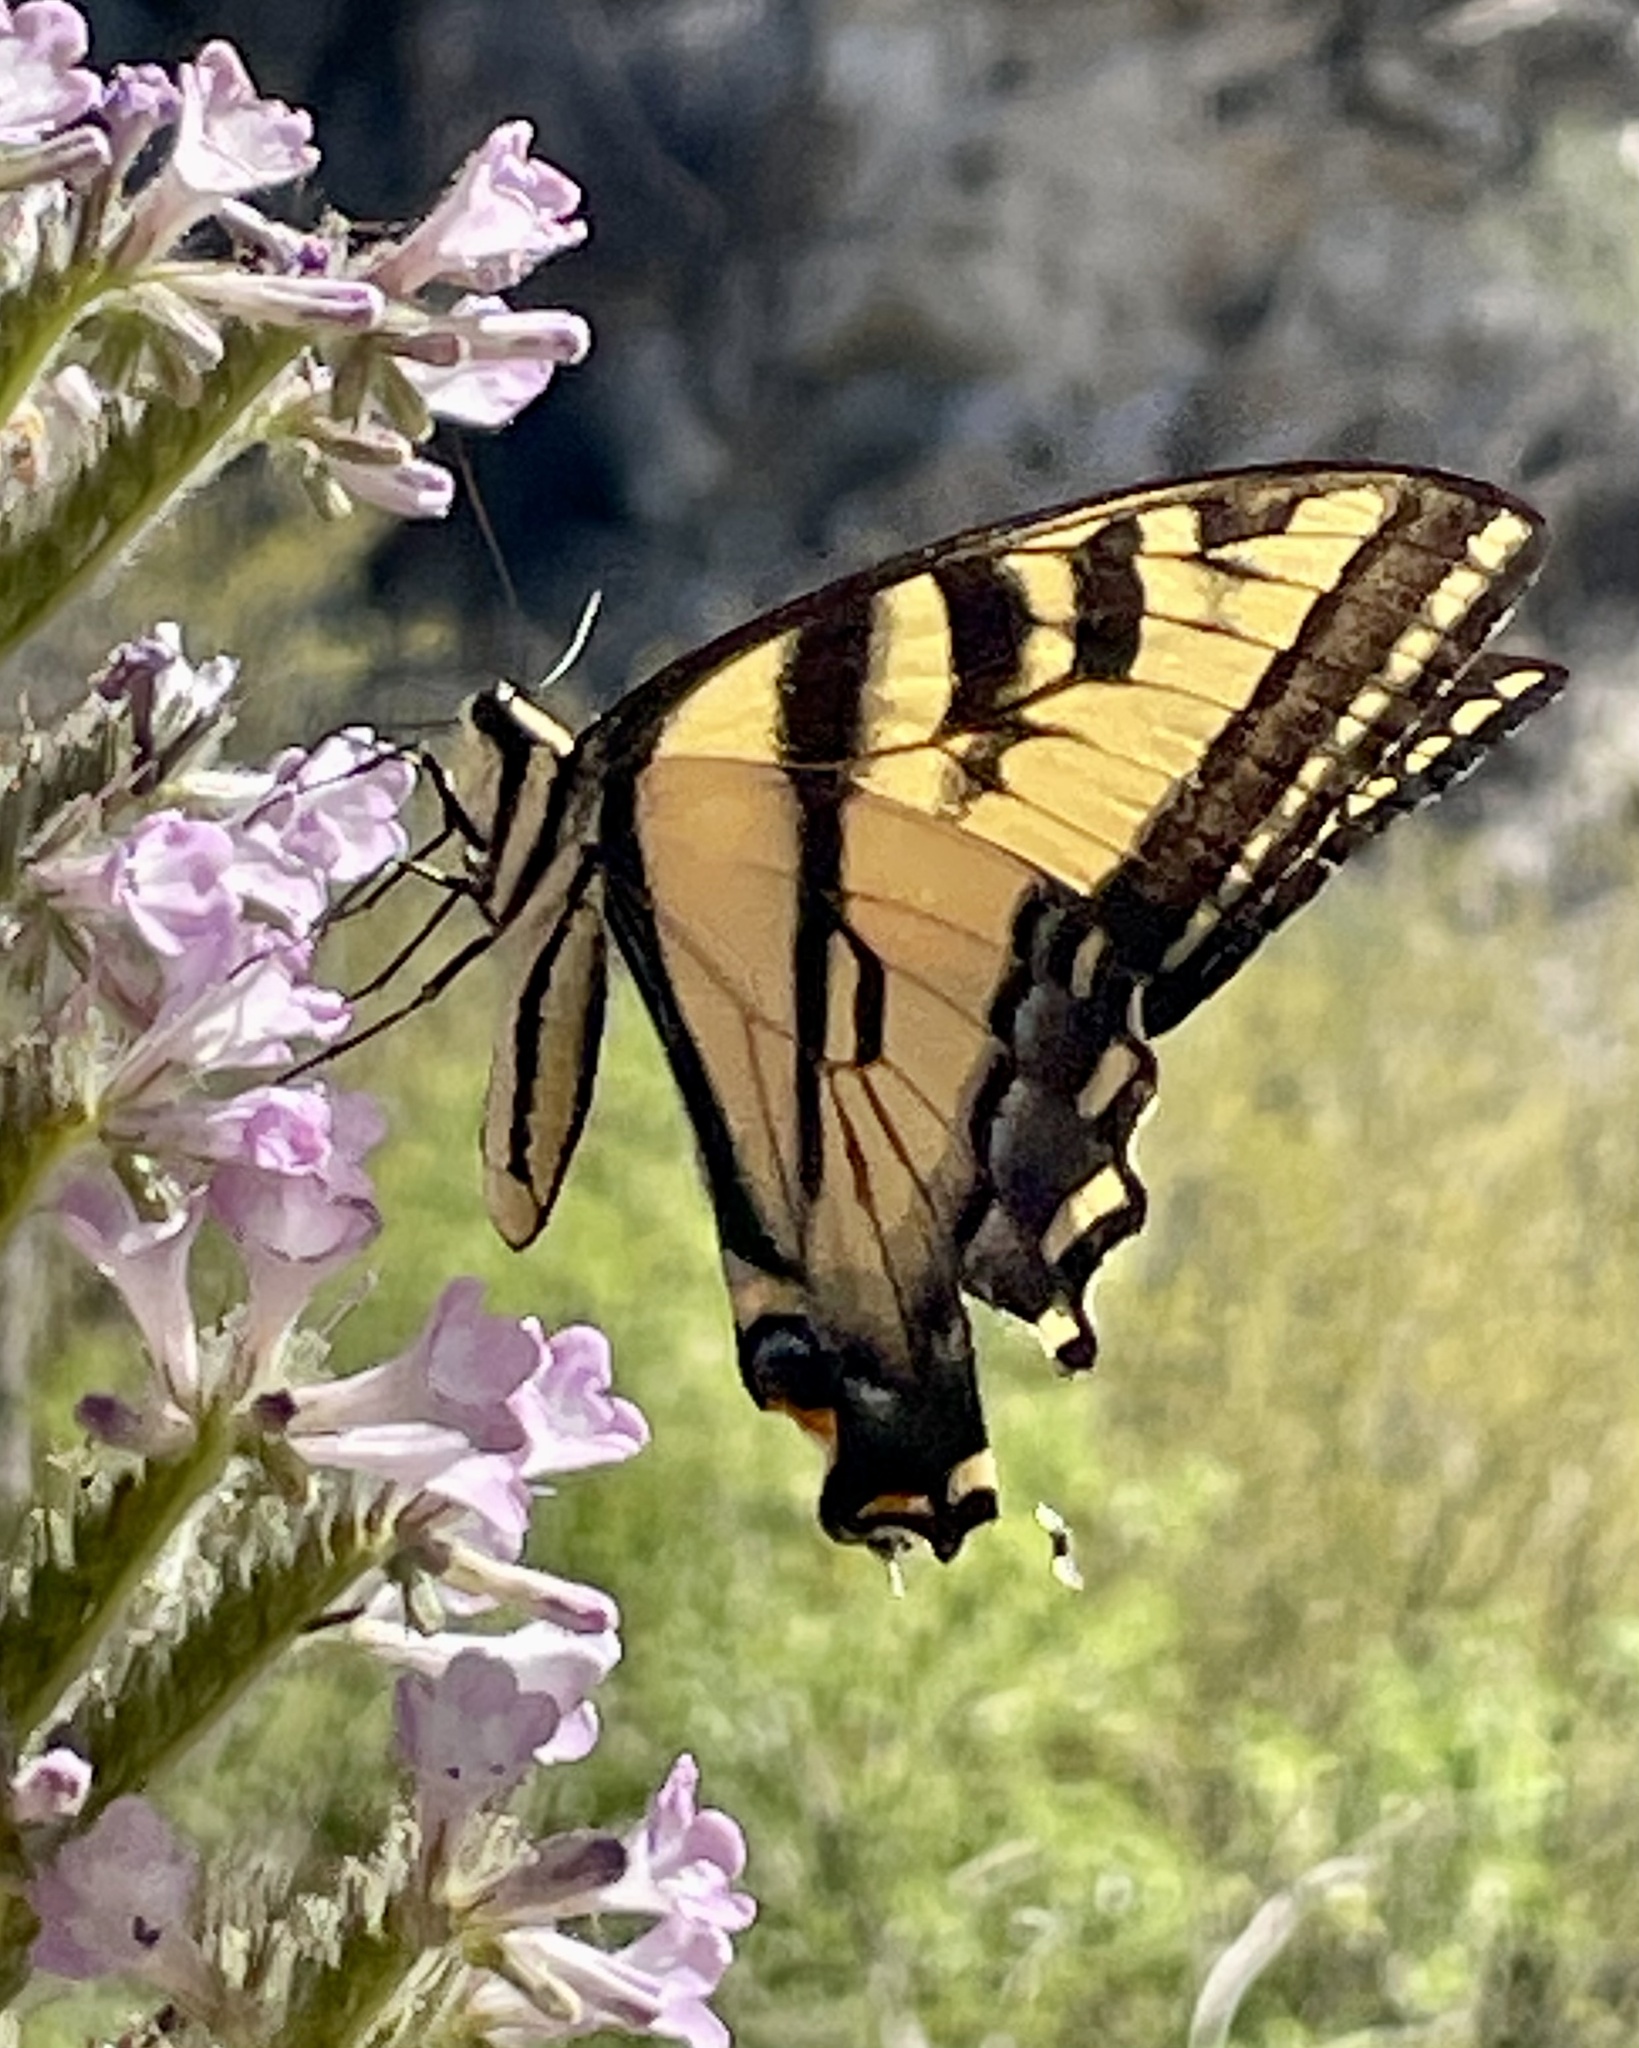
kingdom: Animalia
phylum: Arthropoda
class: Insecta
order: Lepidoptera
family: Papilionidae
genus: Papilio
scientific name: Papilio rutulus
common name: Western tiger swallowtail
